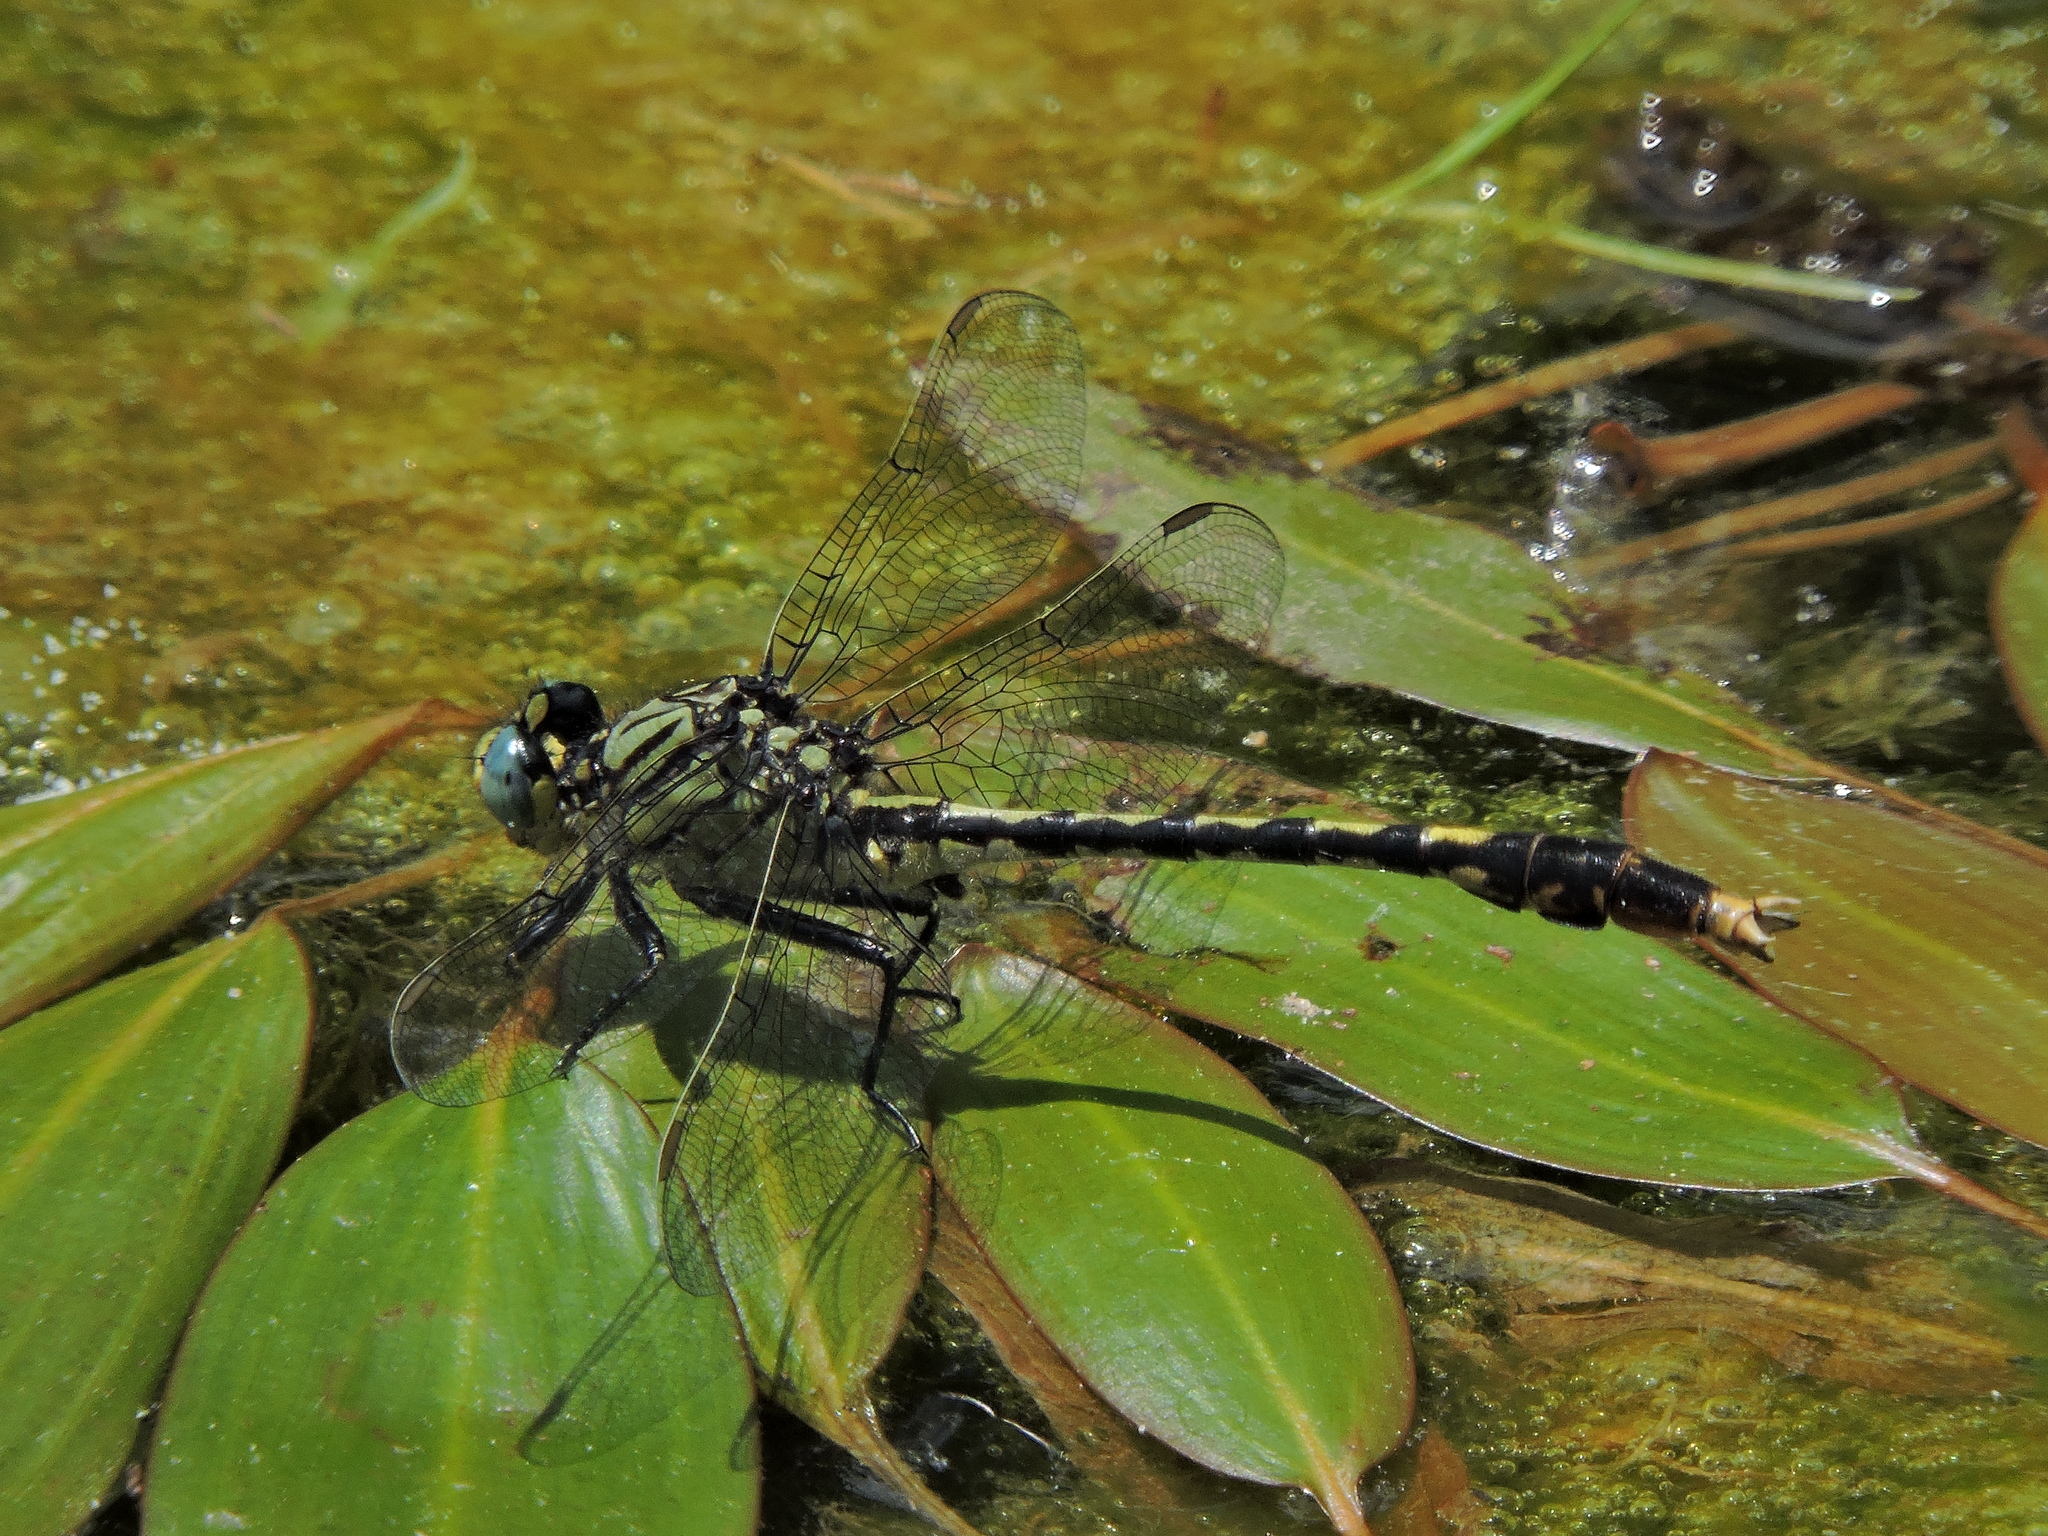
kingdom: Animalia
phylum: Arthropoda
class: Insecta
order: Odonata
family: Gomphidae
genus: Arigomphus
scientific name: Arigomphus villosipes
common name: Unicorn clubtail
